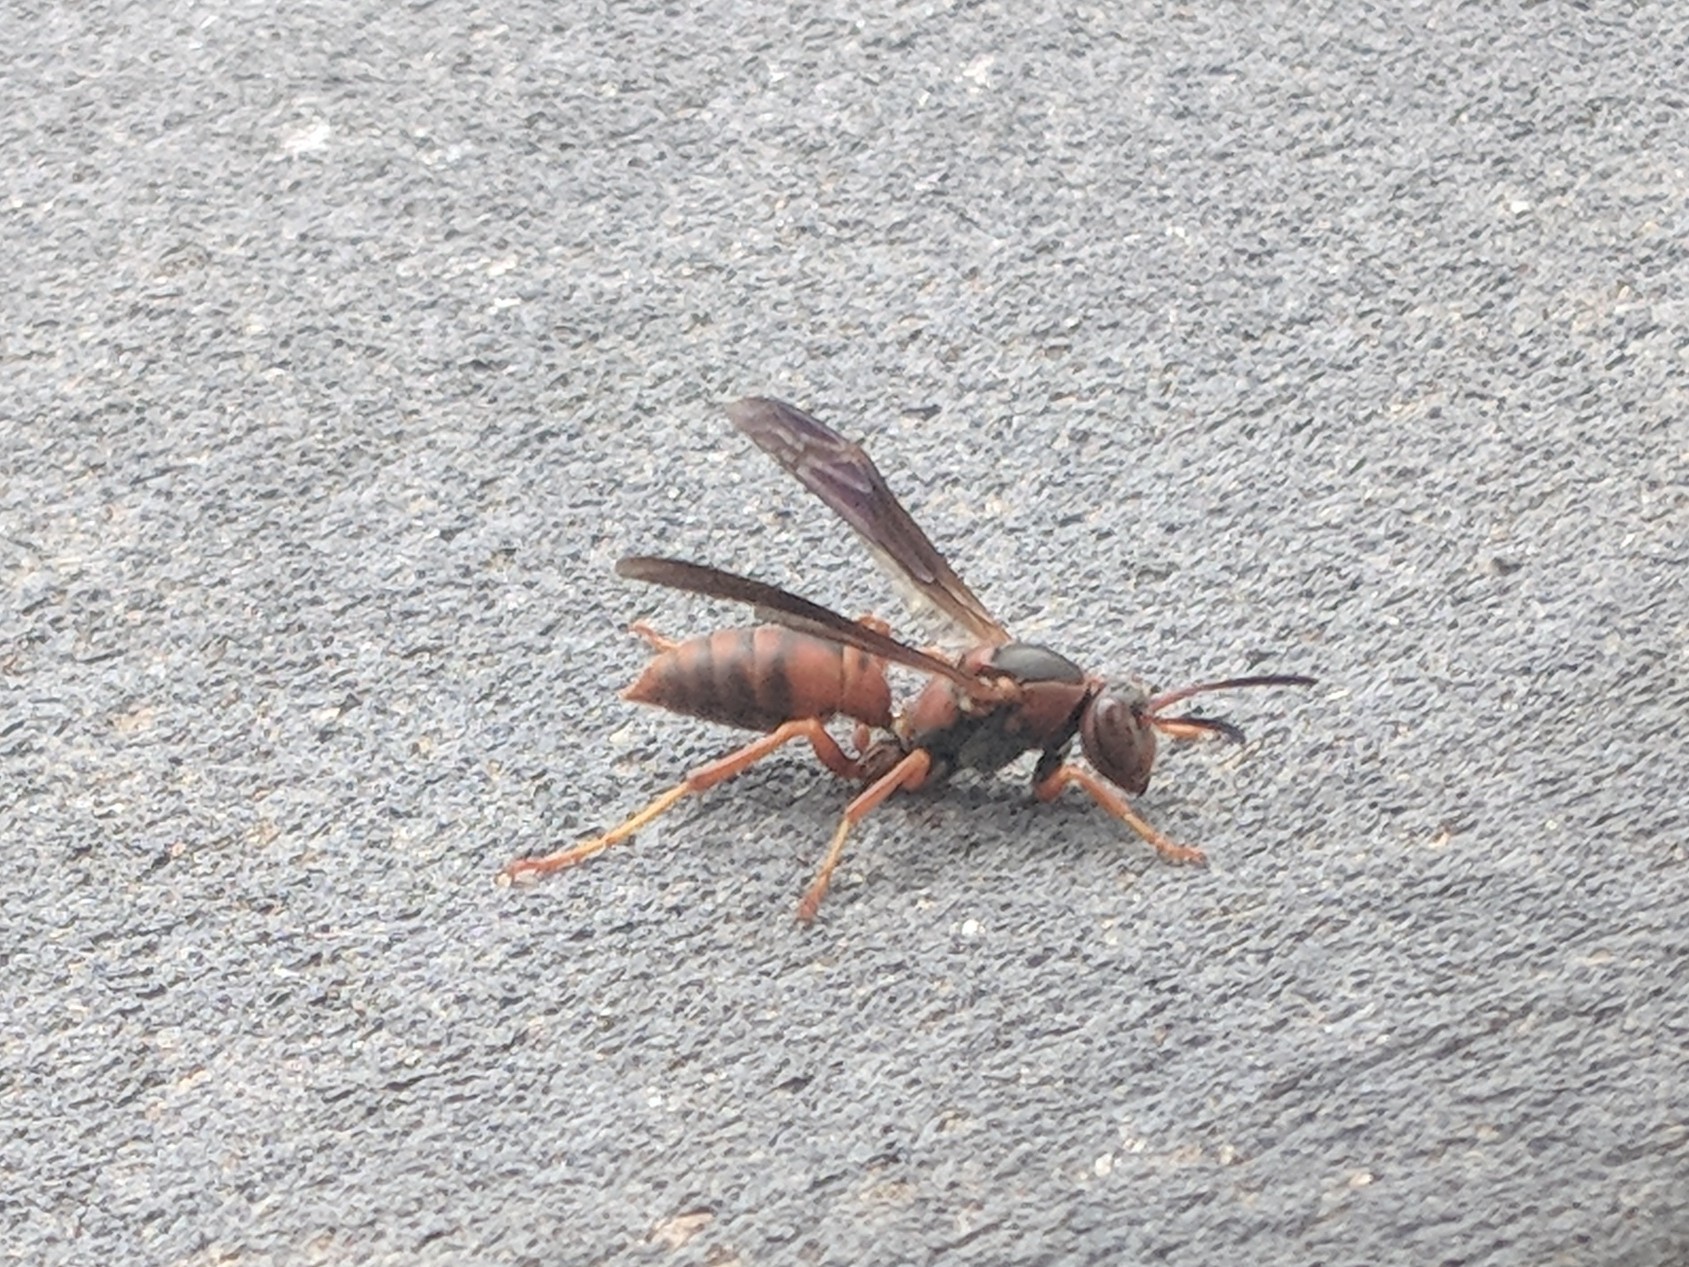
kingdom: Animalia
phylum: Arthropoda
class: Insecta
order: Hymenoptera
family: Eumenidae
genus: Polistes
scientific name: Polistes fuscatus
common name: Dark paper wasp
